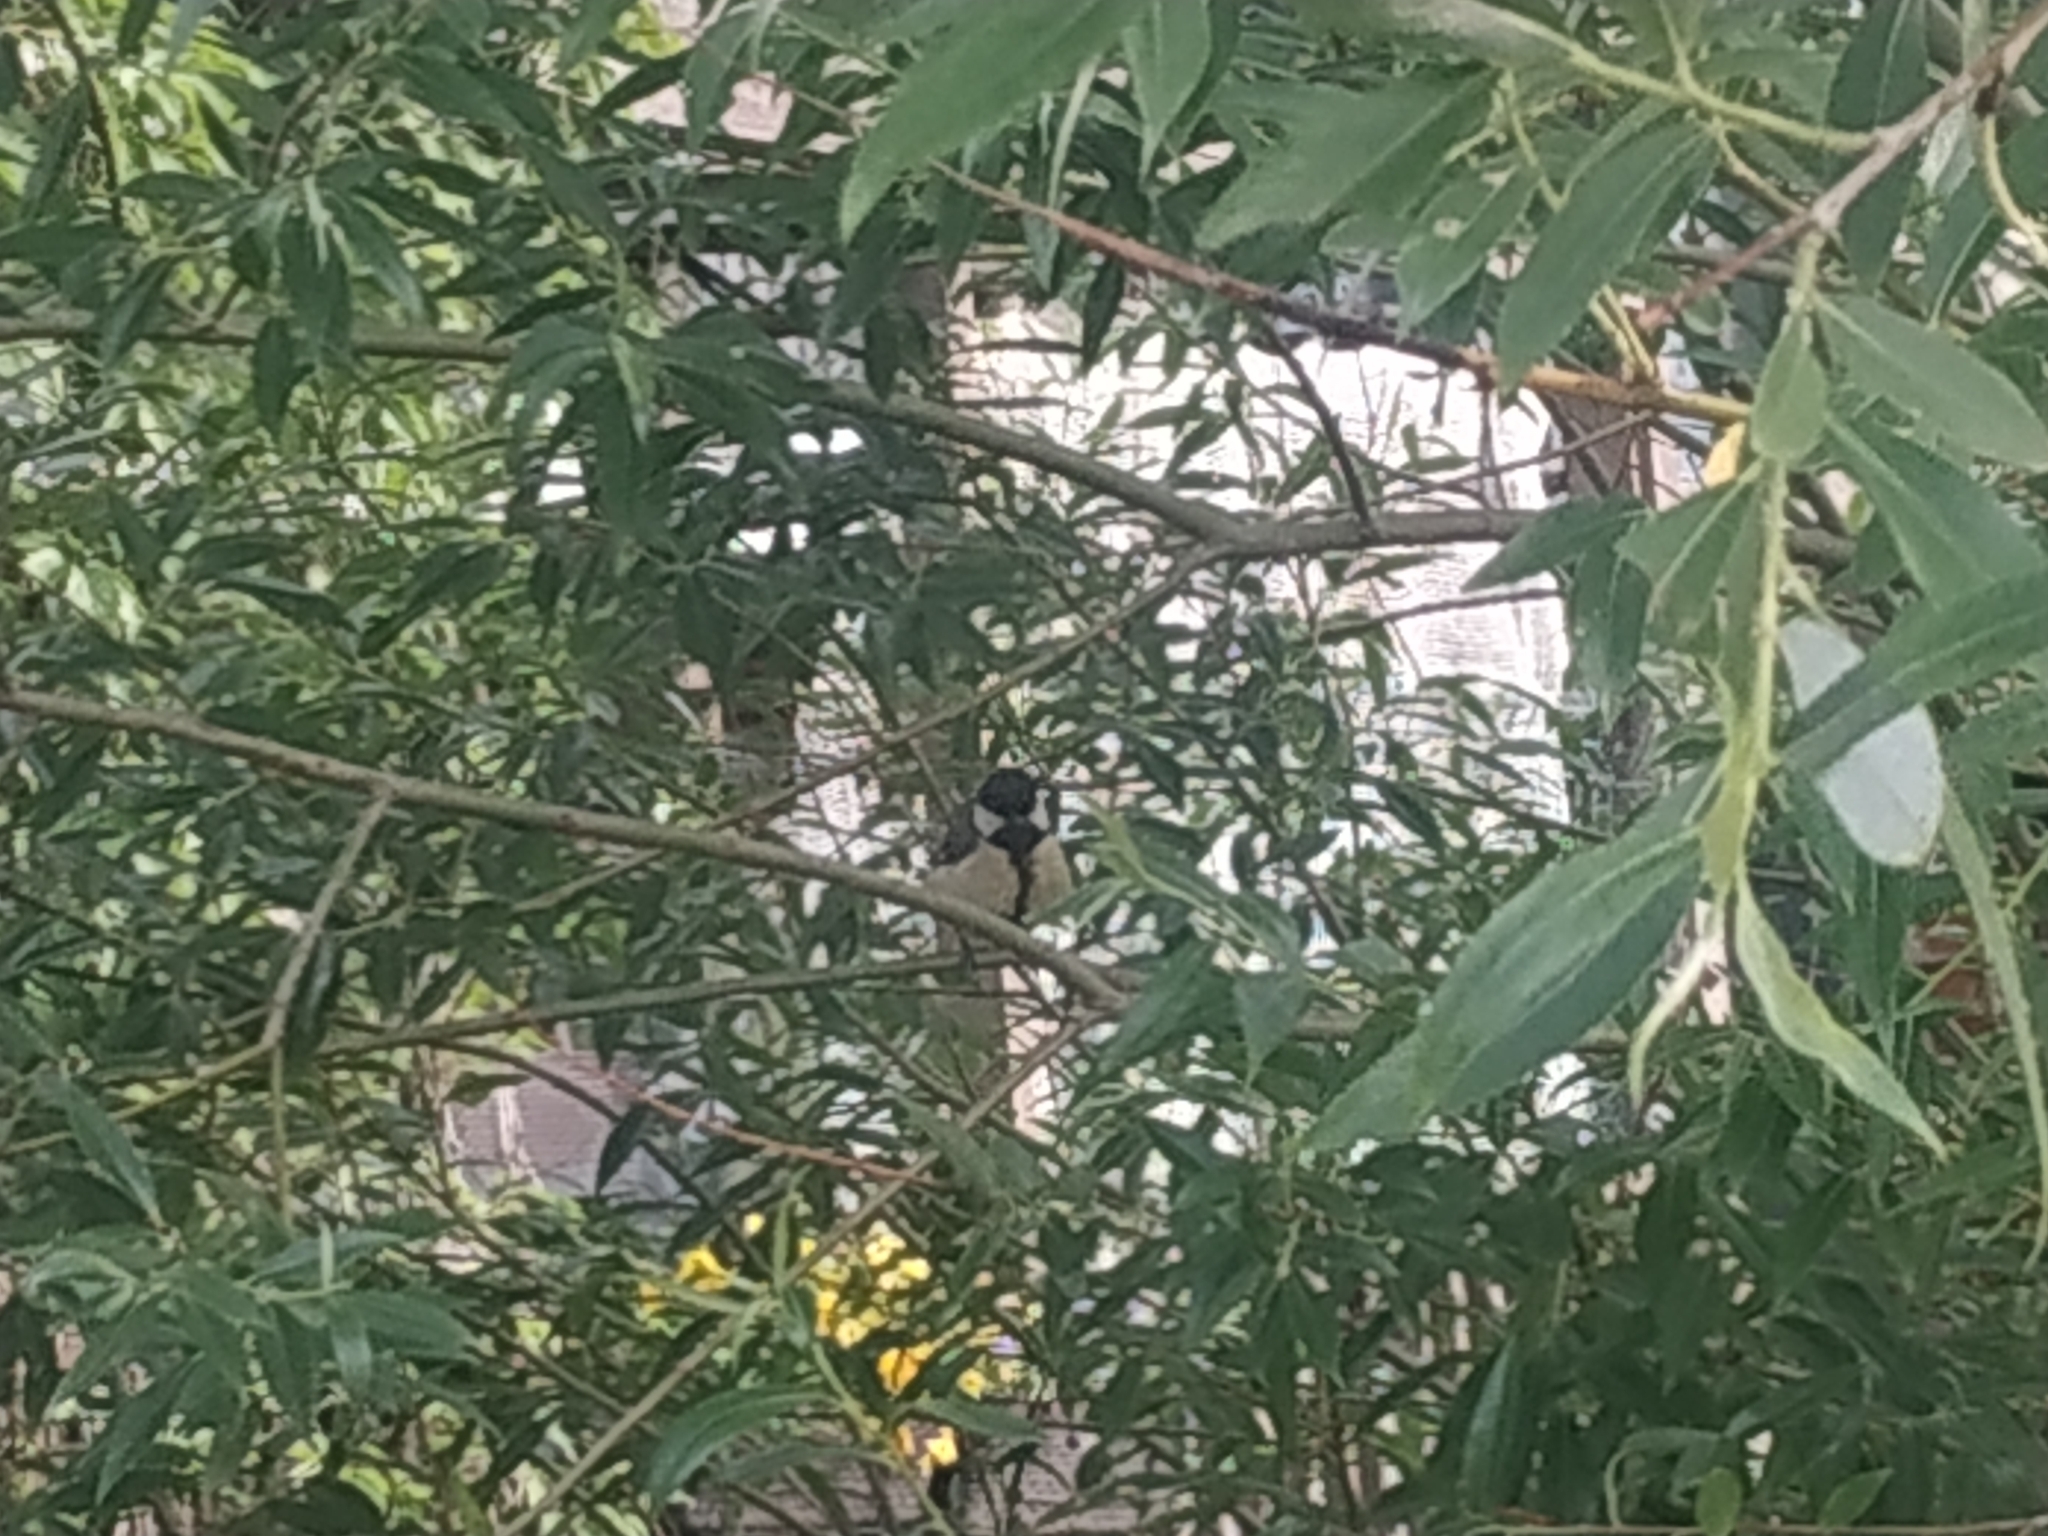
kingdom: Animalia
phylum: Chordata
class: Aves
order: Passeriformes
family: Paridae
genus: Parus
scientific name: Parus major
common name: Great tit
